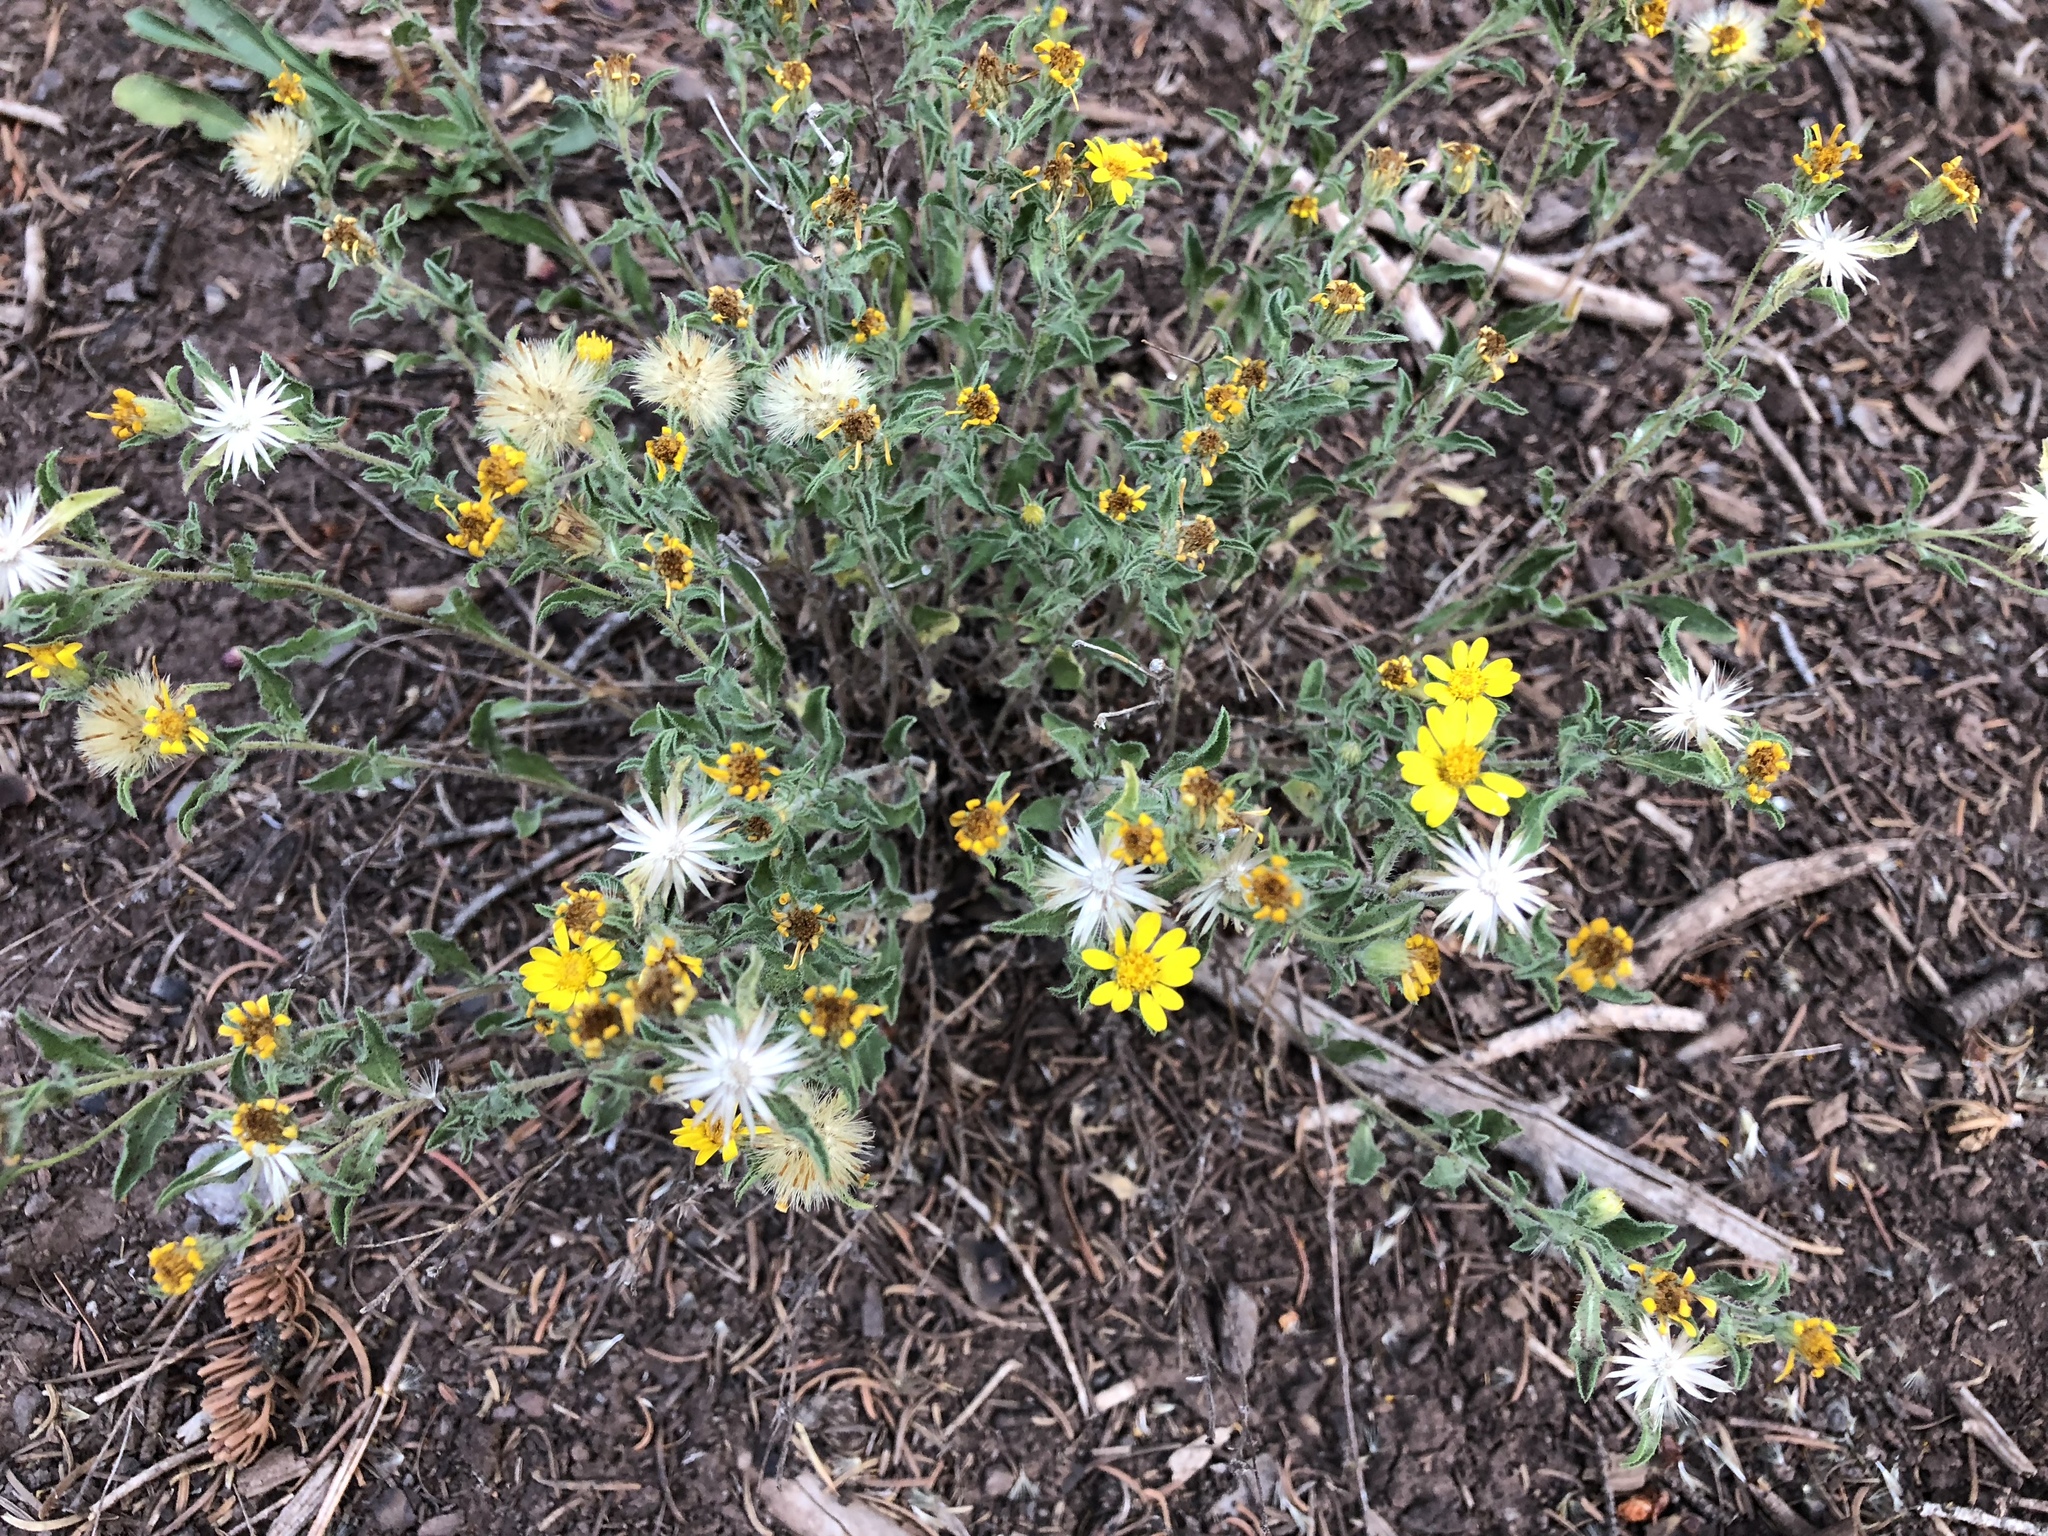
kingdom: Plantae
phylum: Tracheophyta
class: Magnoliopsida
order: Asterales
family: Asteraceae
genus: Heterotheca
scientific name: Heterotheca hirsuta
